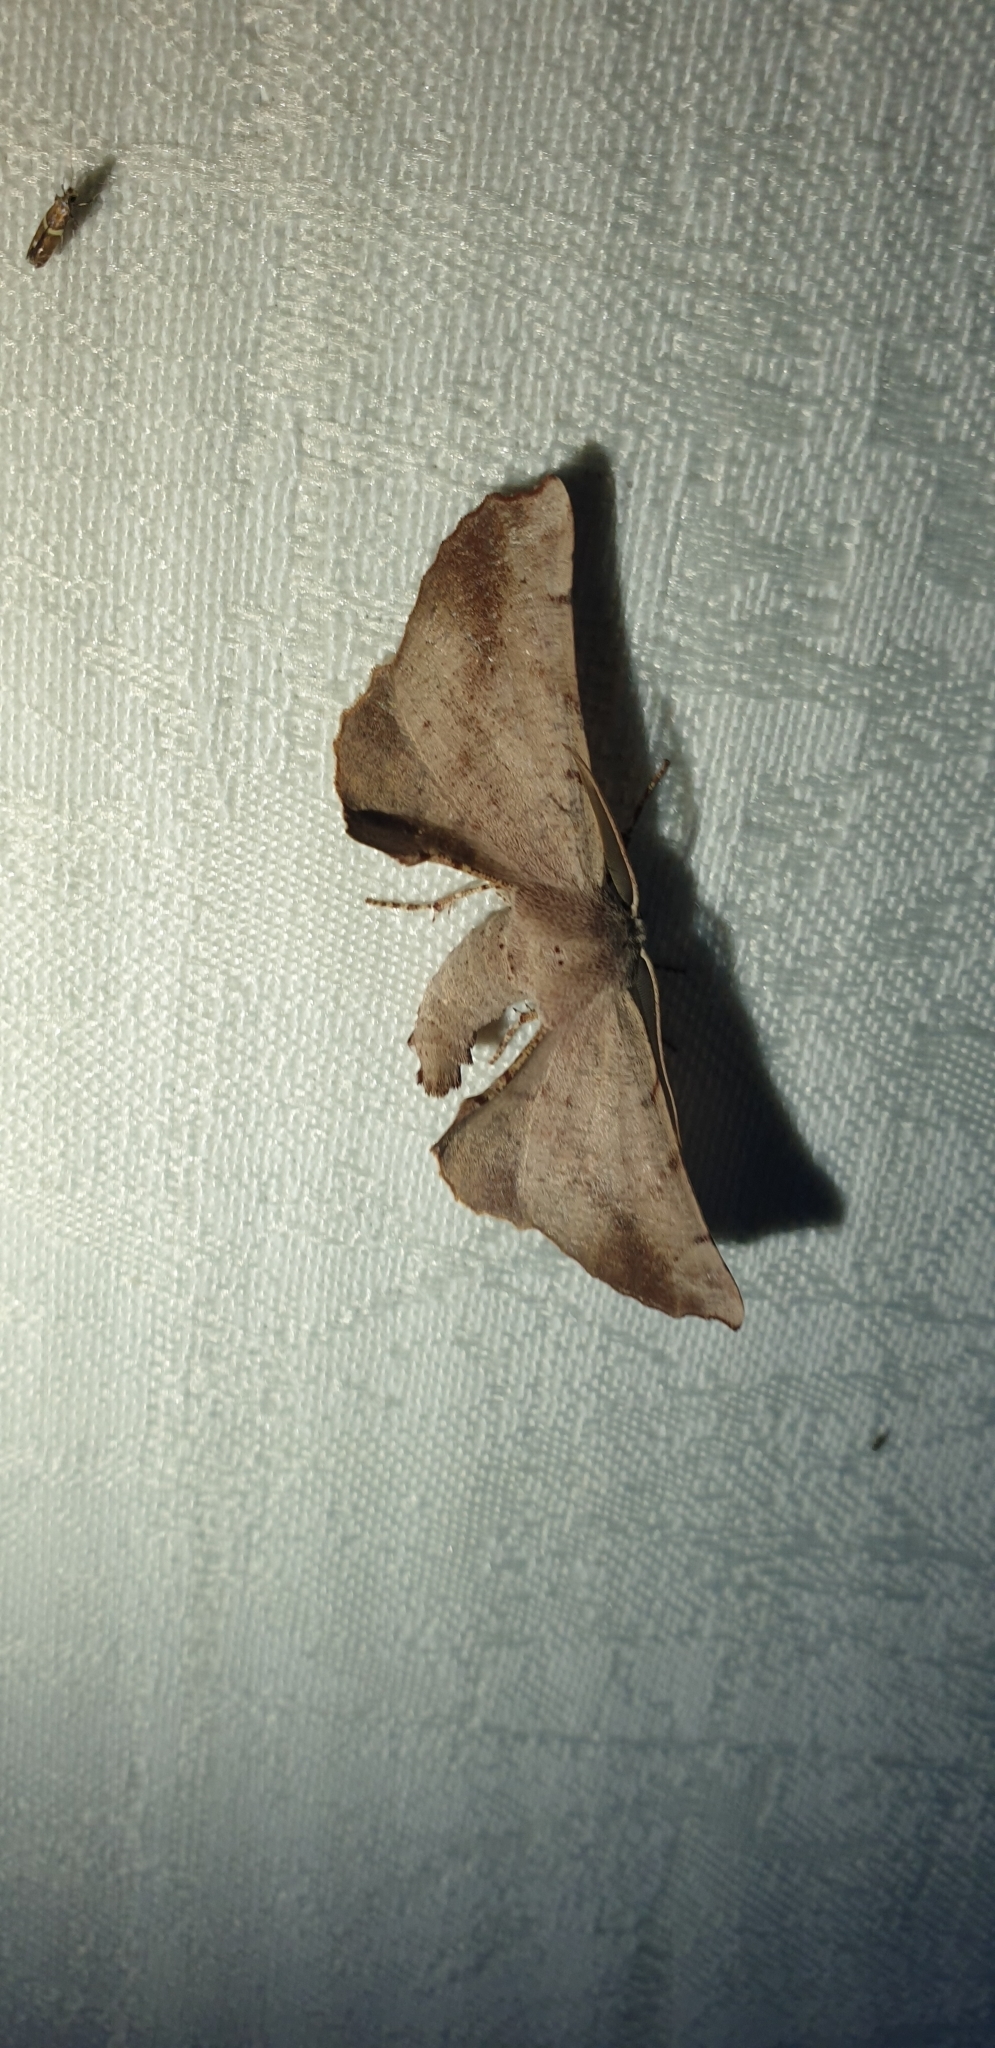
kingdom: Animalia
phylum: Arthropoda
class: Insecta
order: Lepidoptera
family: Geometridae
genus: Circopetes
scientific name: Circopetes obtusata
